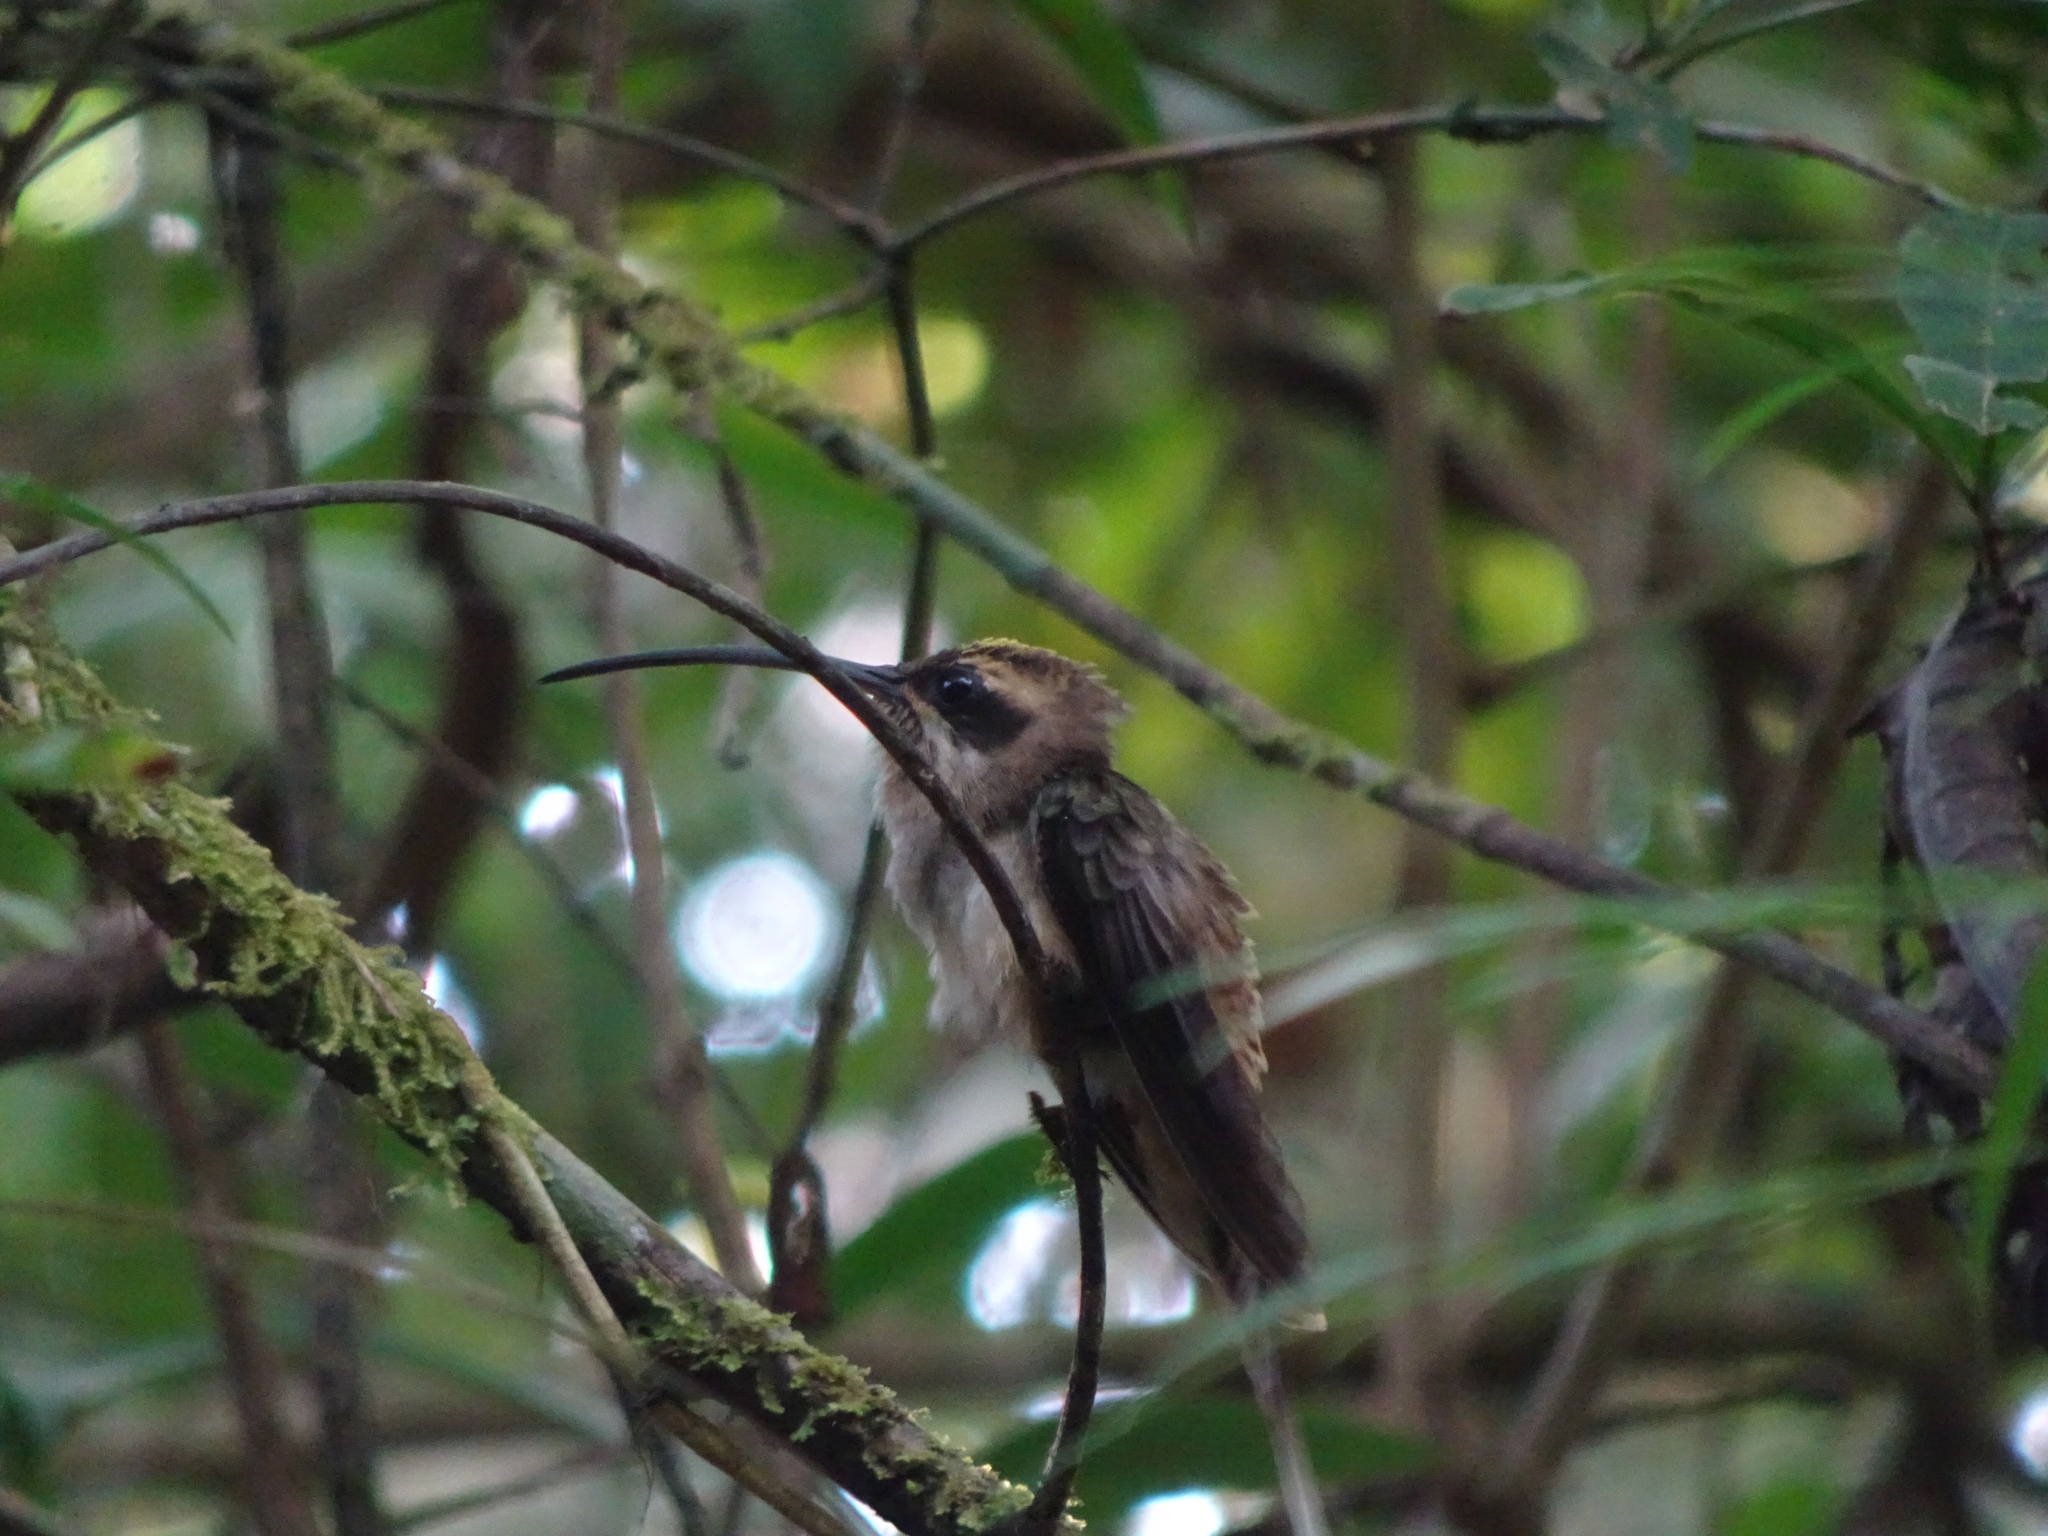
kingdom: Animalia
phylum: Chordata
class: Aves
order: Apodiformes
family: Trochilidae
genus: Phaethornis
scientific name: Phaethornis longirostris
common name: Long-billed hermit
